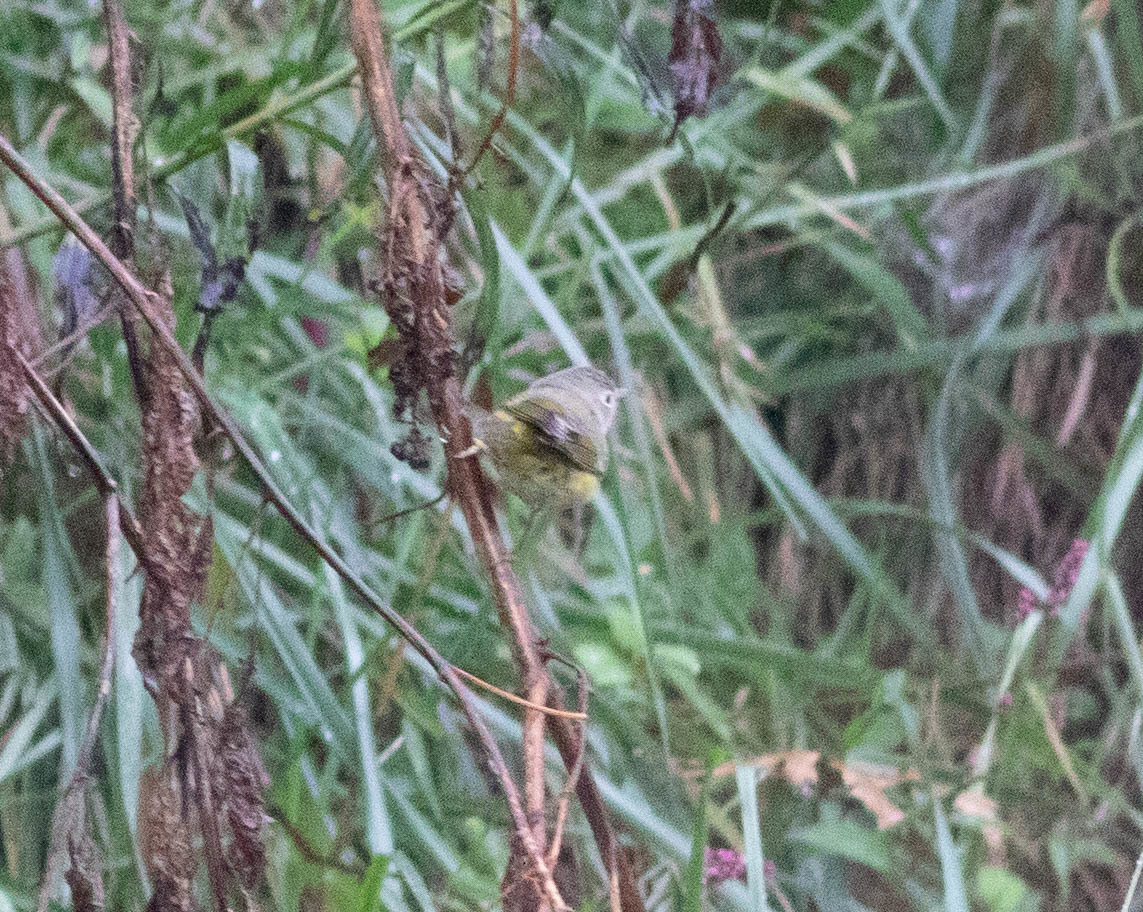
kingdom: Animalia
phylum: Chordata
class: Aves
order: Passeriformes
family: Parulidae
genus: Leiothlypis
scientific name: Leiothlypis ruficapilla
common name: Nashville warbler
